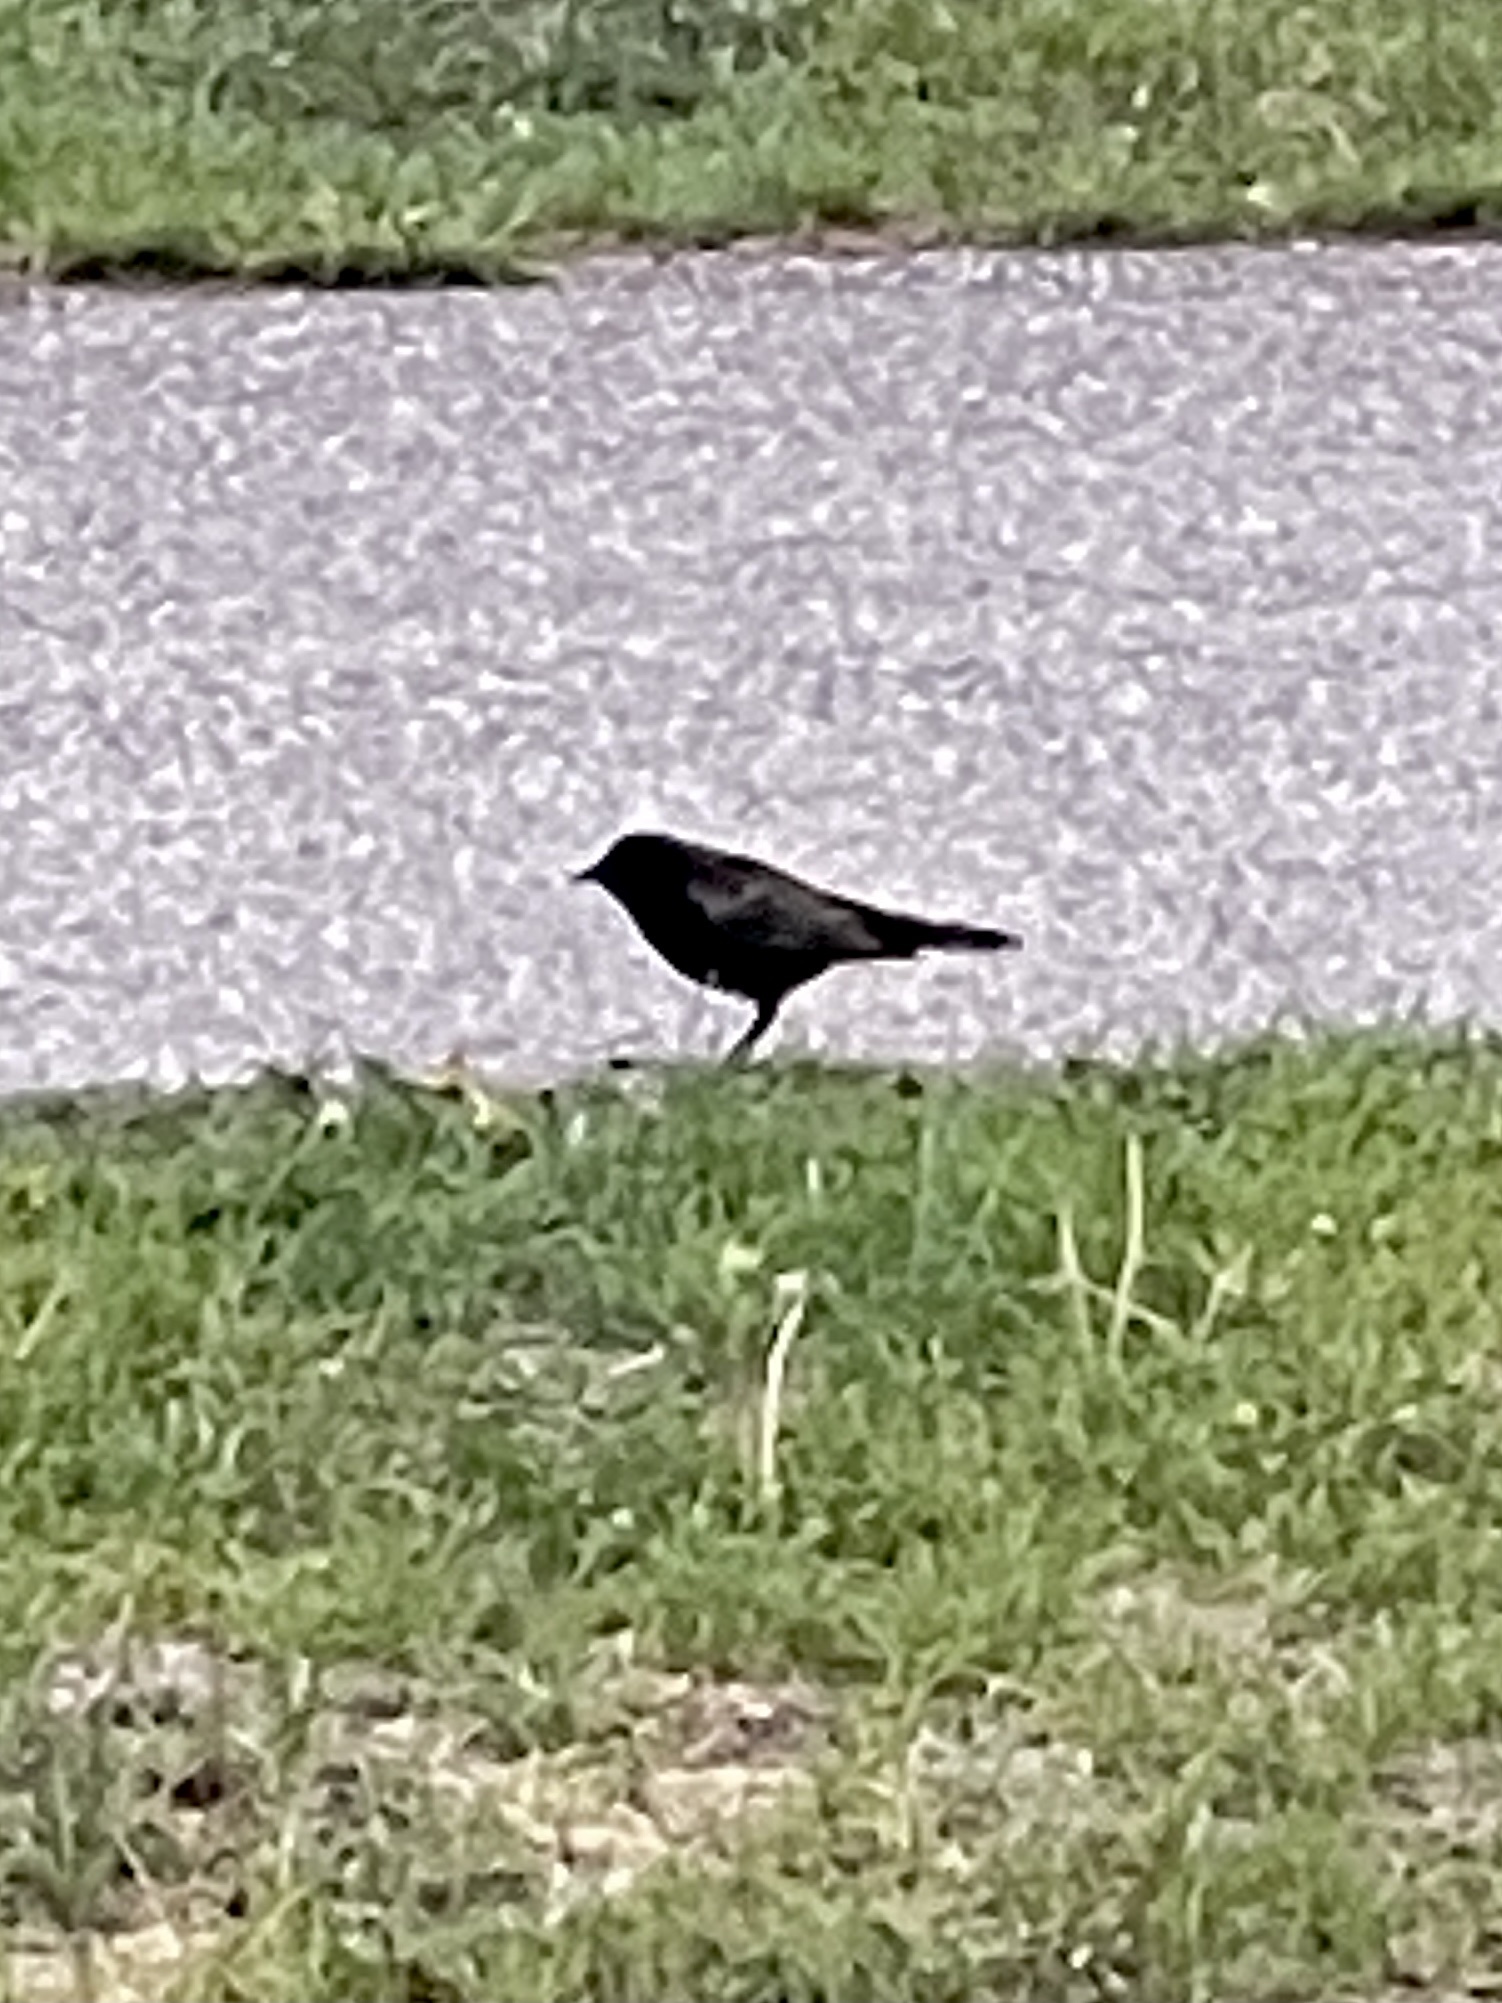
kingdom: Animalia
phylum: Chordata
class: Aves
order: Passeriformes
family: Icteridae
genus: Agelaius
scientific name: Agelaius phoeniceus
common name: Red-winged blackbird
